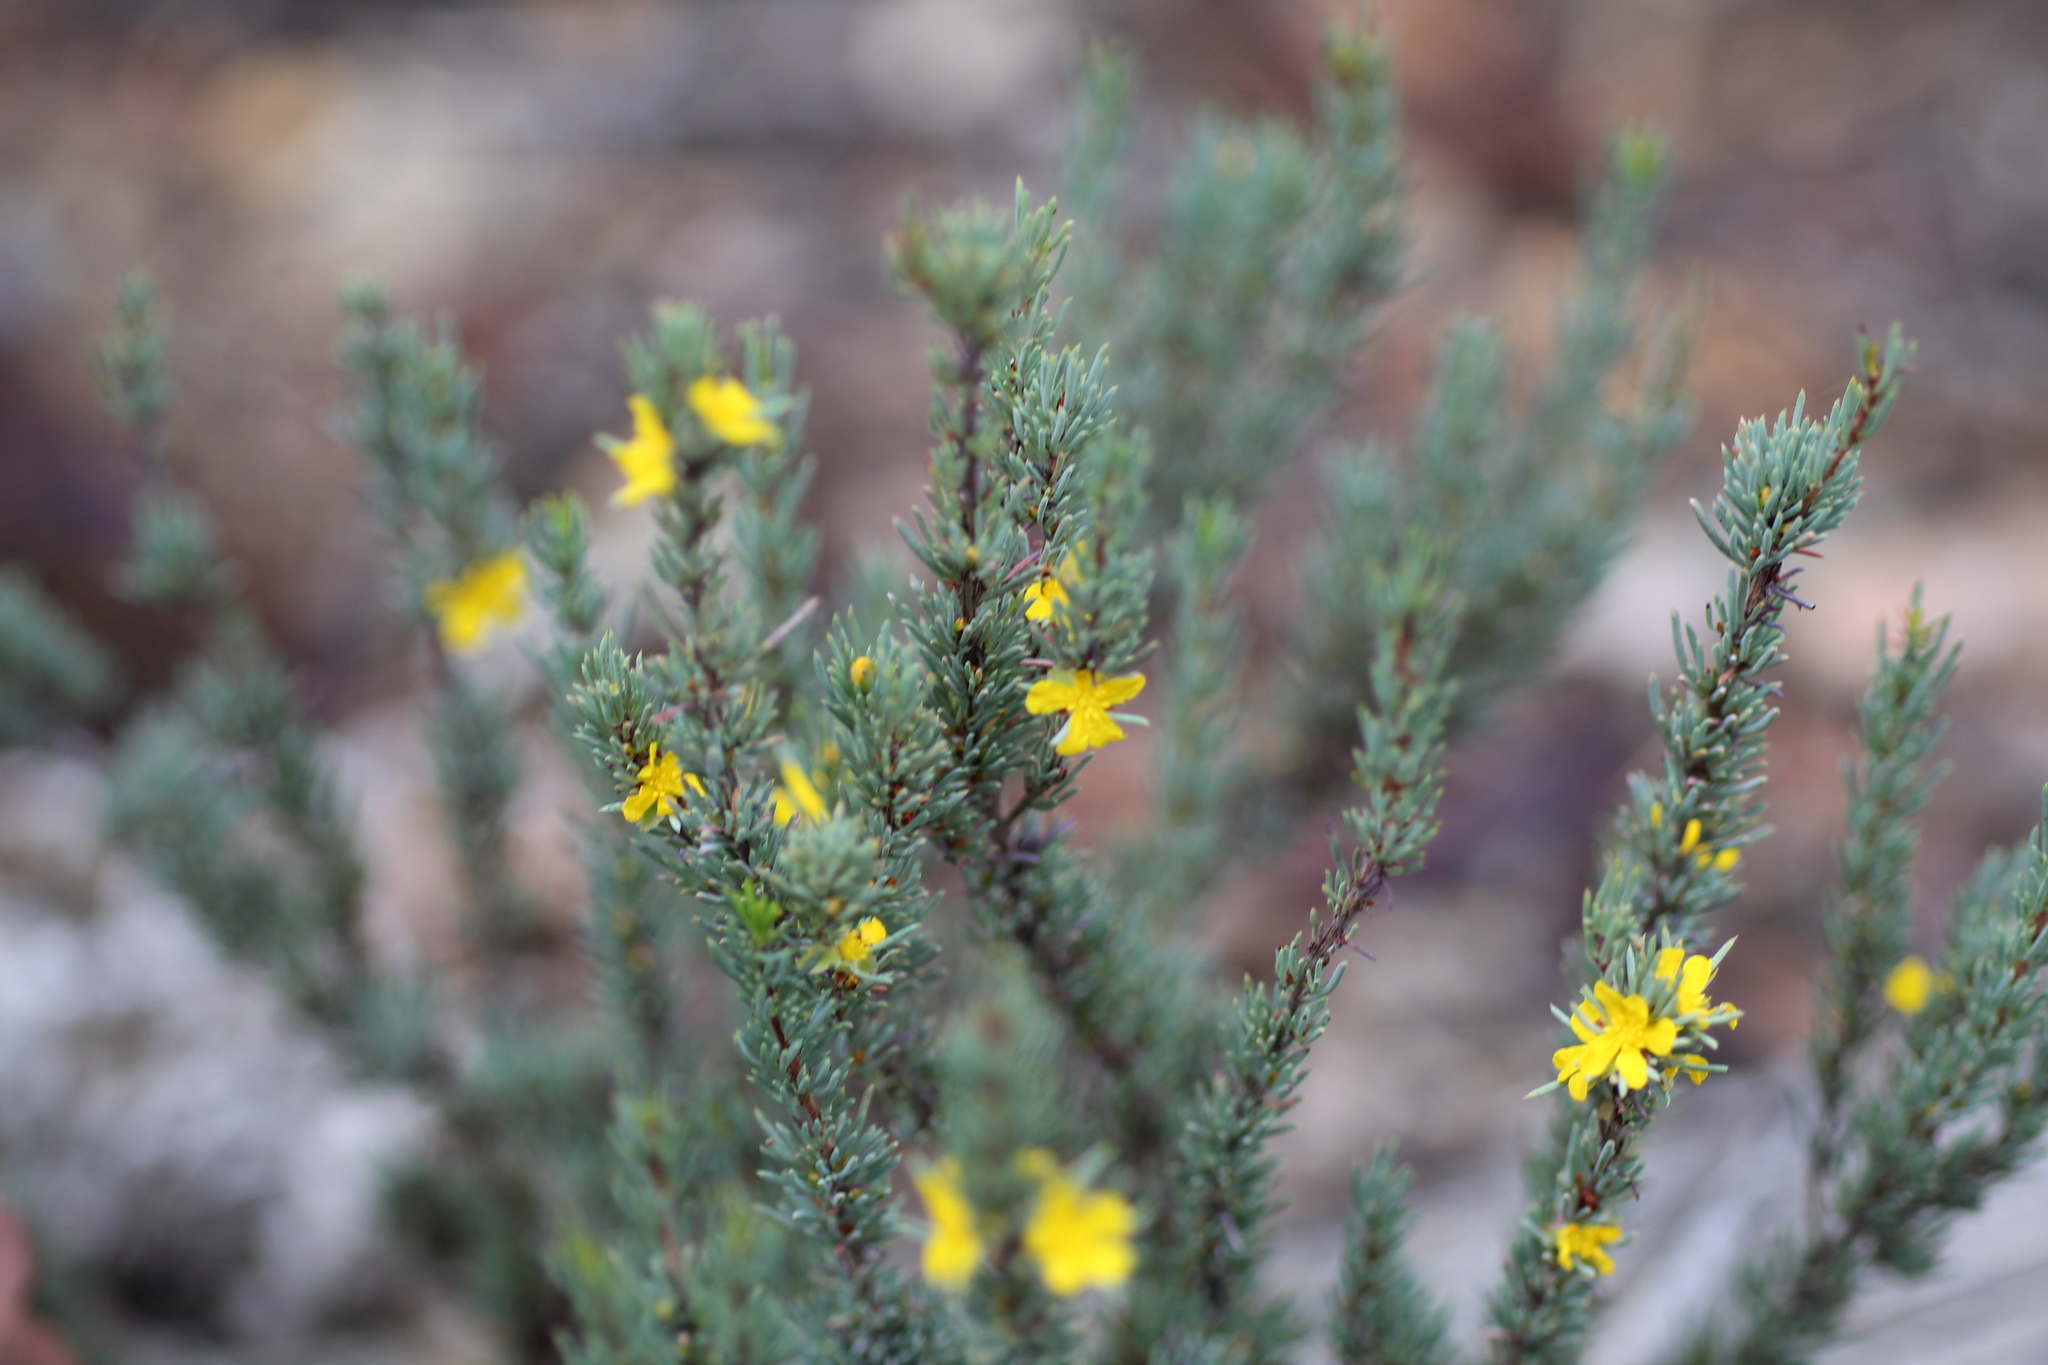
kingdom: Plantae
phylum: Tracheophyta
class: Magnoliopsida
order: Dilleniales
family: Dilleniaceae
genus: Hibbertia
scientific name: Hibbertia hemignosta
